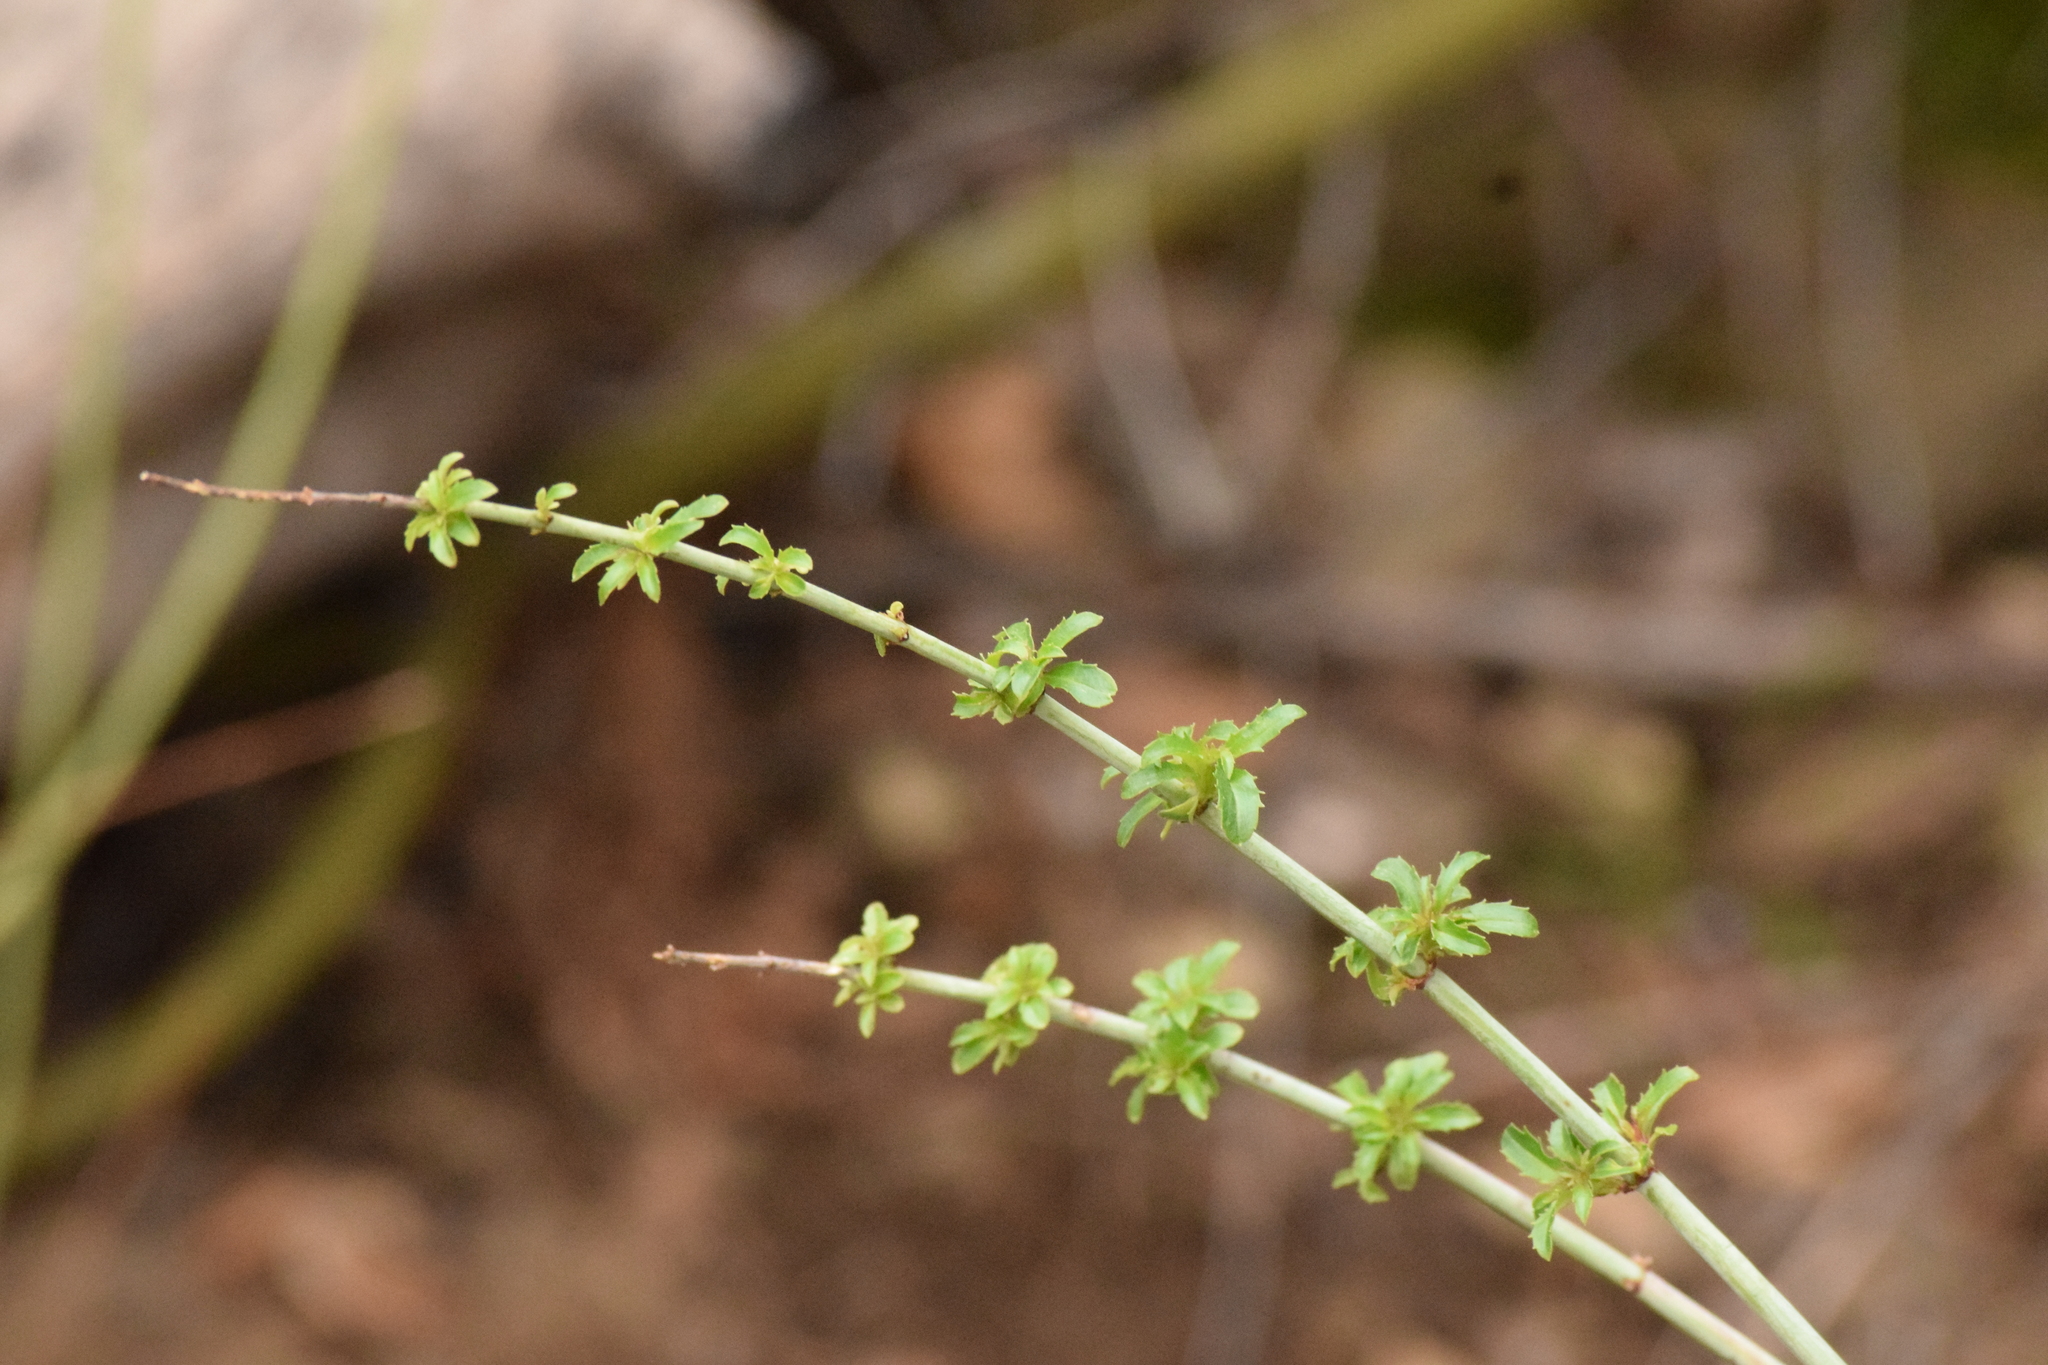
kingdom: Plantae
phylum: Tracheophyta
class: Magnoliopsida
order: Lamiales
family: Plantaginaceae
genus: Keckiella
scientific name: Keckiella ternata
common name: Scarlet keckiella
